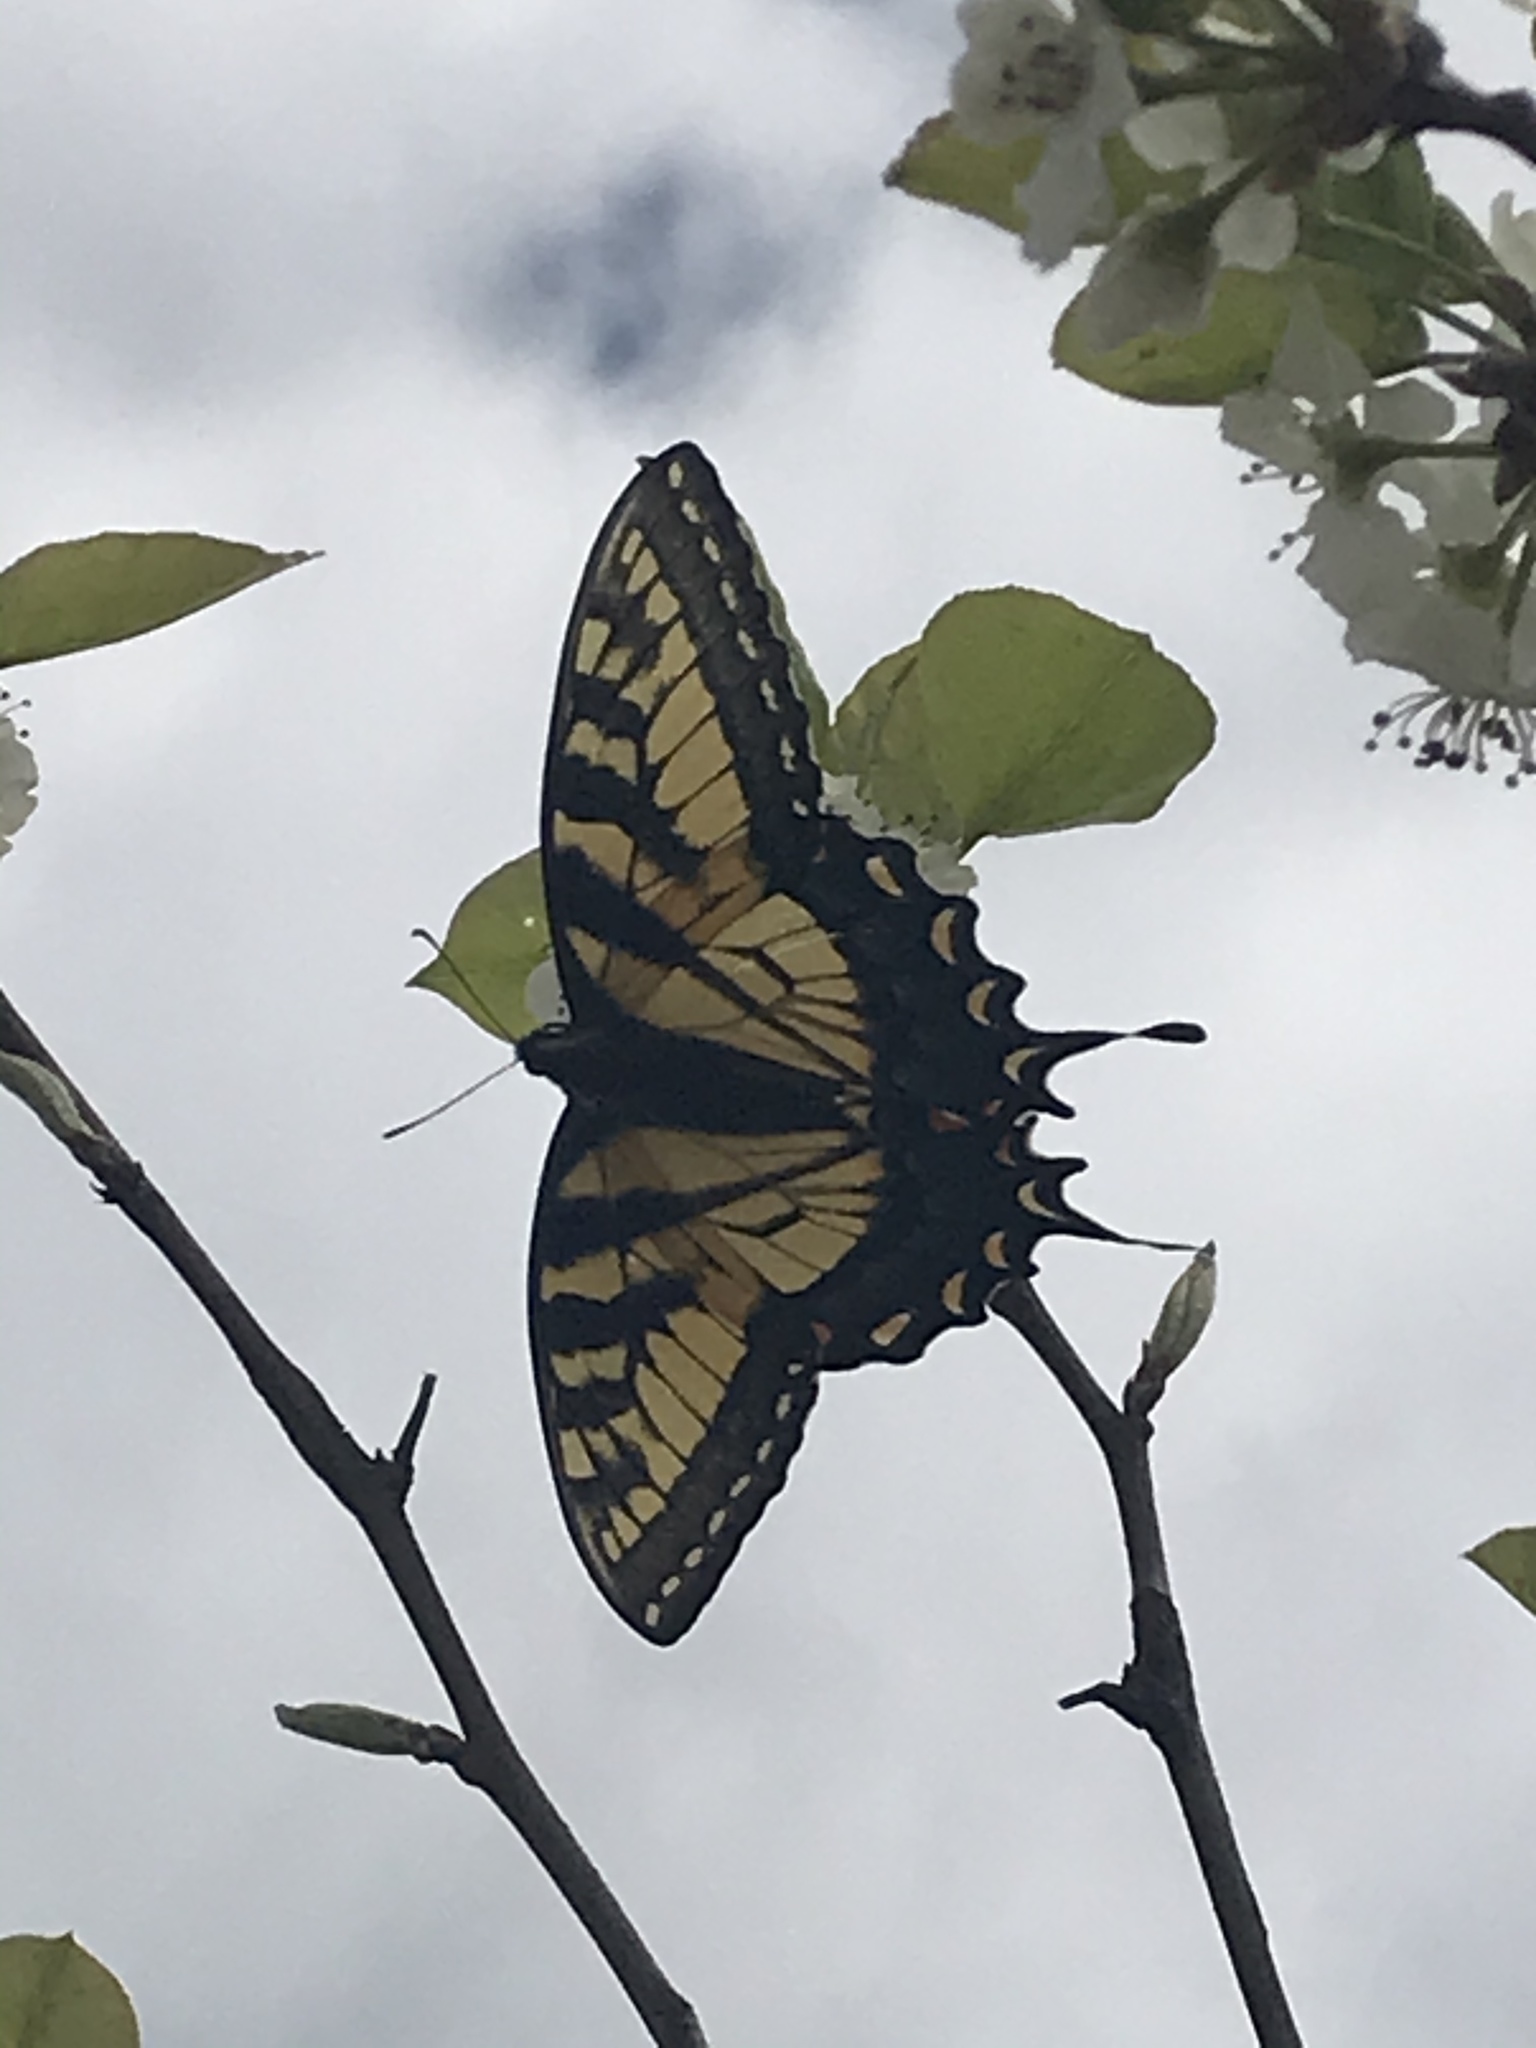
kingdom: Animalia
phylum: Arthropoda
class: Insecta
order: Lepidoptera
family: Papilionidae
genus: Papilio
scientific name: Papilio glaucus
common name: Tiger swallowtail
